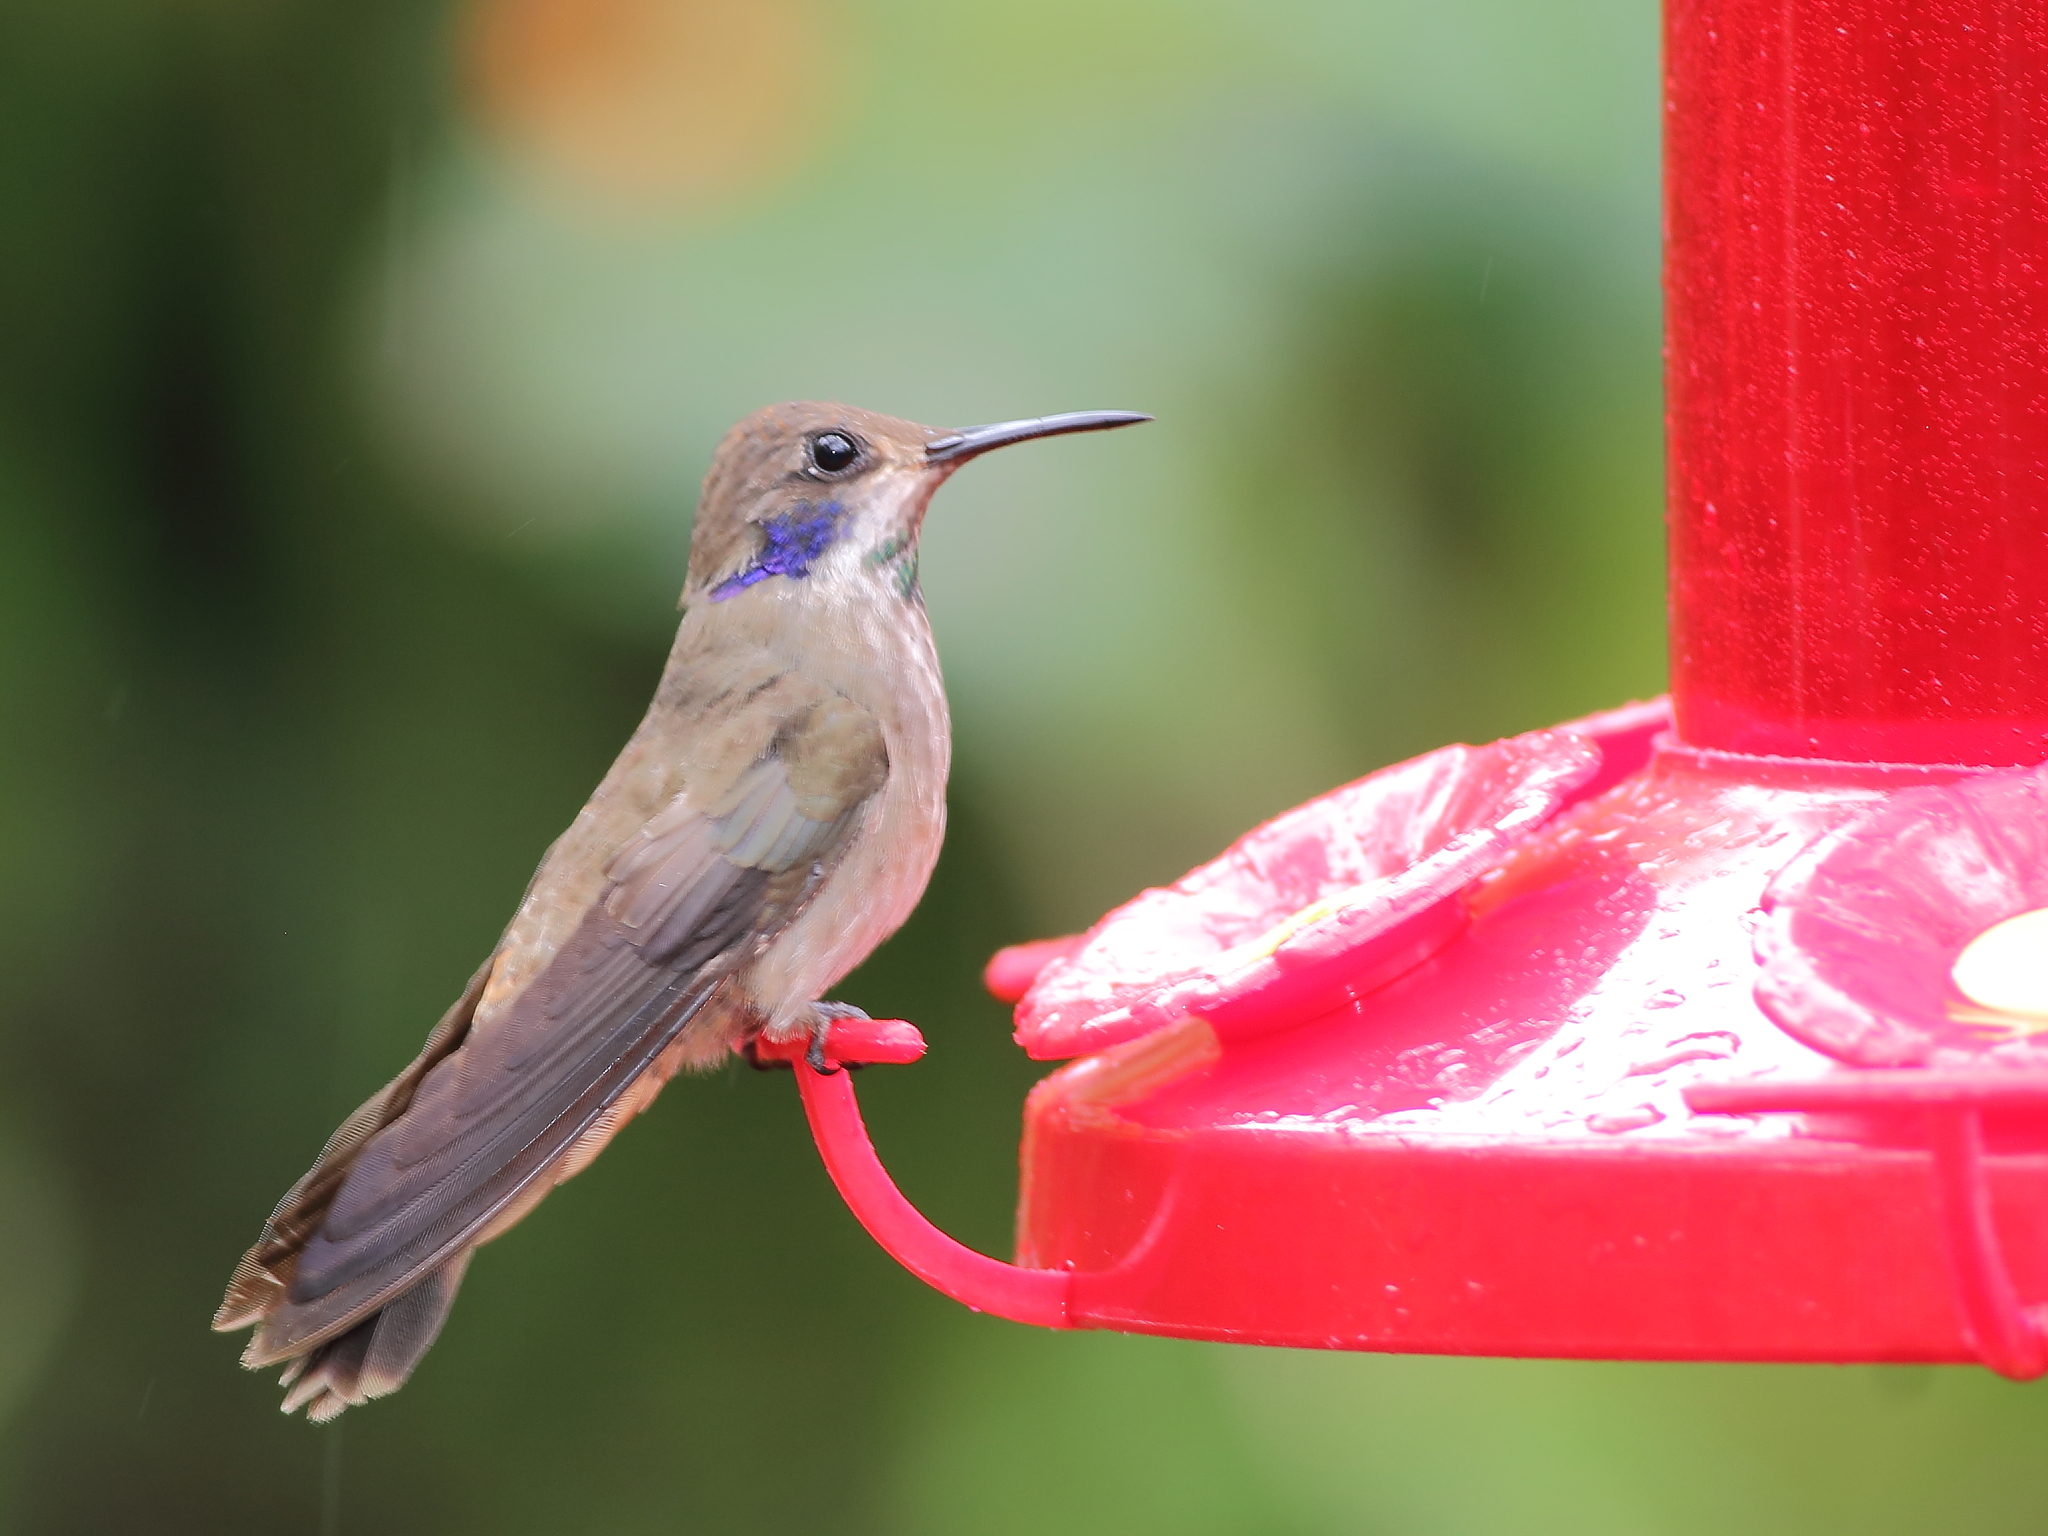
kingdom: Animalia
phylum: Chordata
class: Aves
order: Apodiformes
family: Trochilidae
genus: Colibri
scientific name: Colibri delphinae
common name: Brown violetear
